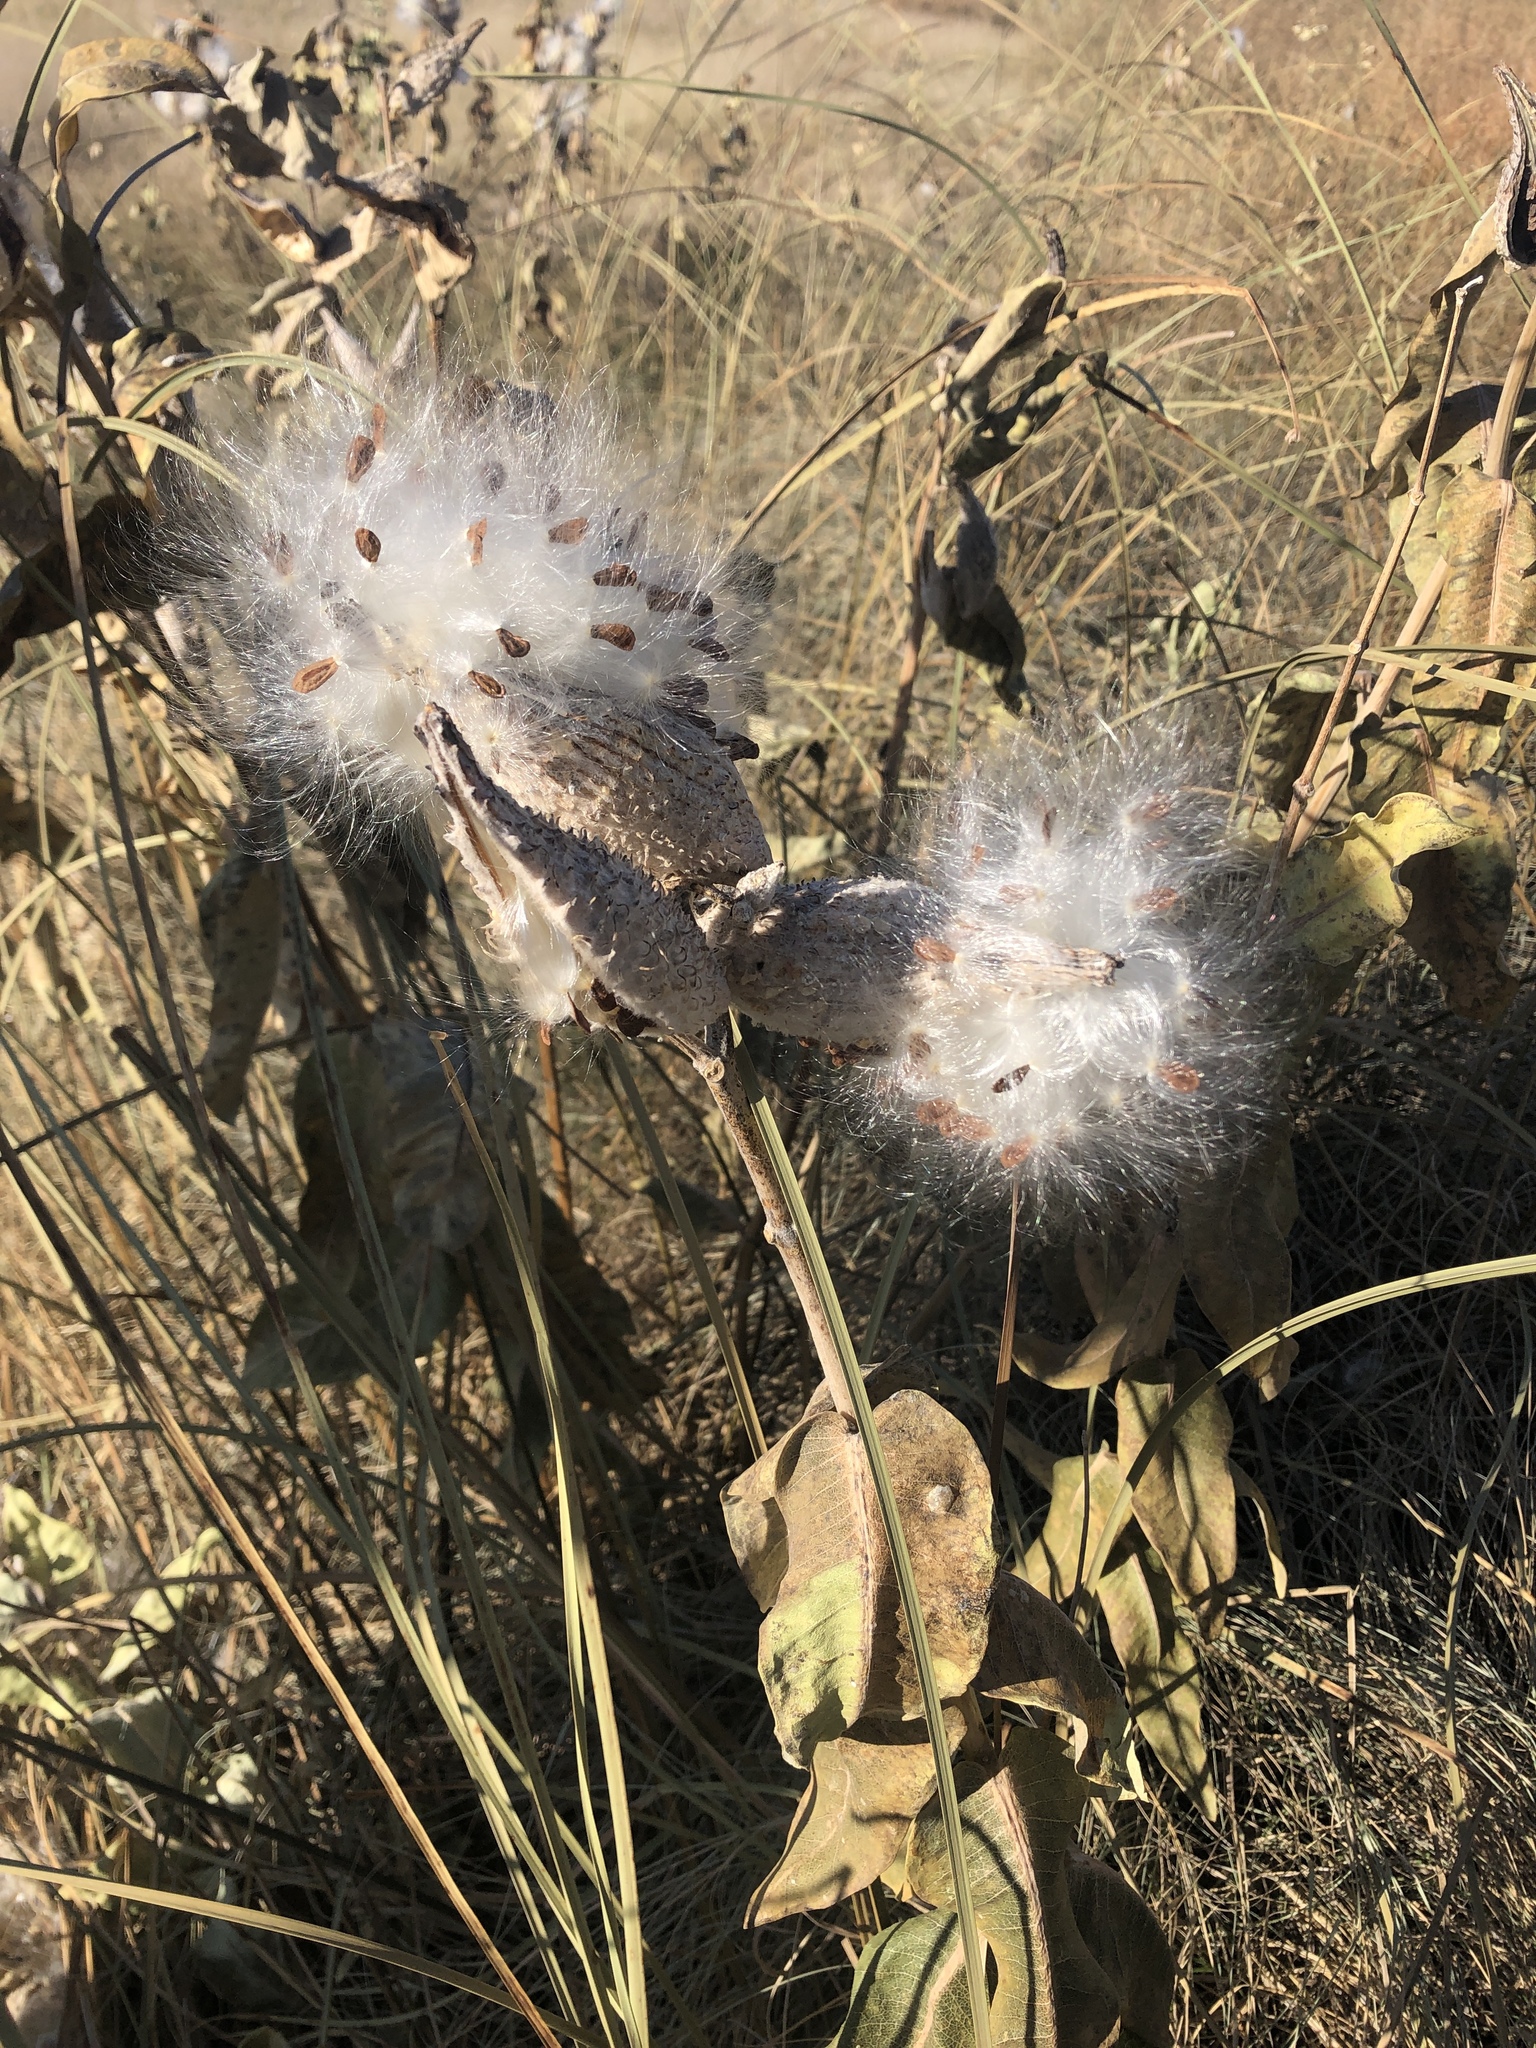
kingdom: Plantae
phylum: Tracheophyta
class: Magnoliopsida
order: Gentianales
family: Apocynaceae
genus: Asclepias
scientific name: Asclepias speciosa
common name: Showy milkweed
